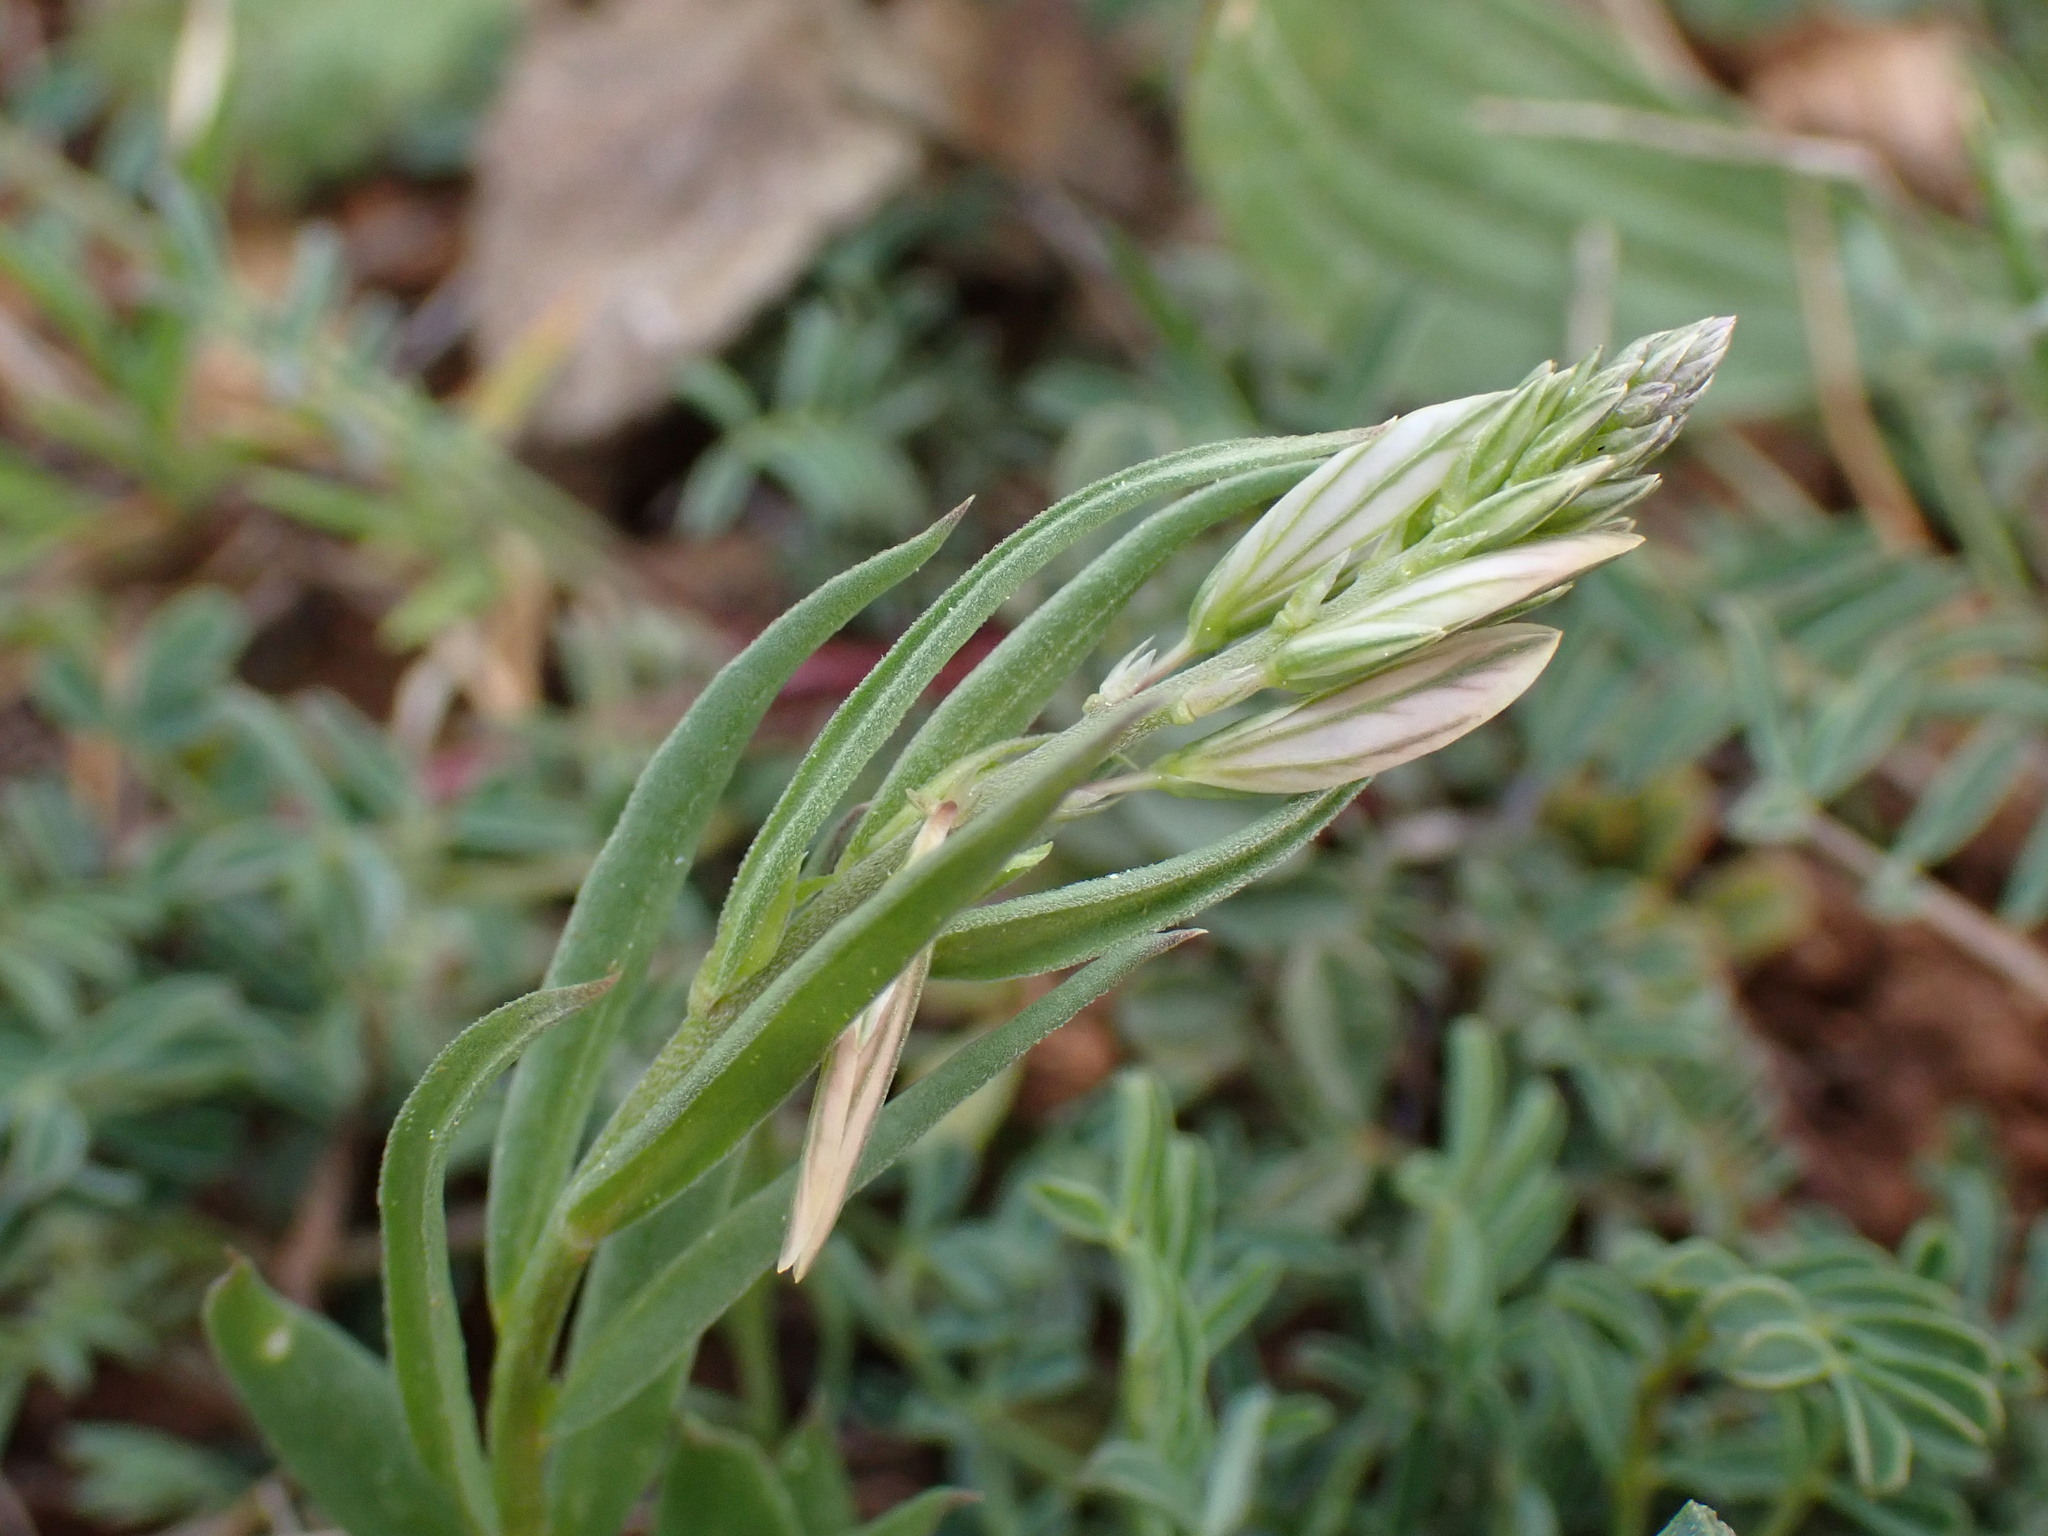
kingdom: Plantae
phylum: Tracheophyta
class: Magnoliopsida
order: Fabales
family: Polygalaceae
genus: Polygala
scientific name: Polygala monspeliaca
